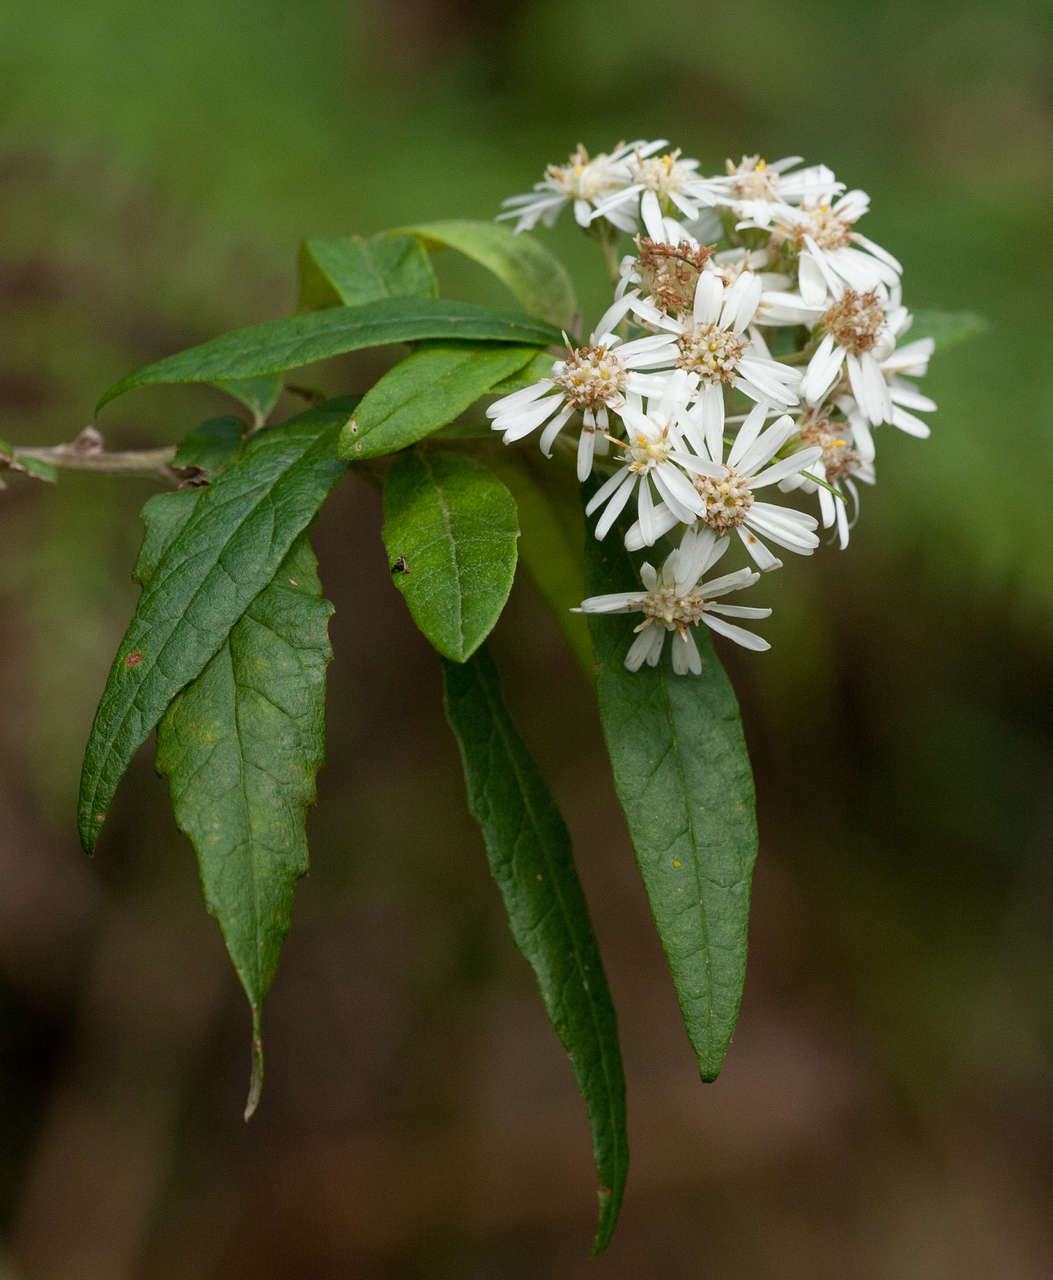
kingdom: Plantae
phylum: Tracheophyta
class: Magnoliopsida
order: Asterales
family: Asteraceae
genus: Olearia
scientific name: Olearia lirata
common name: Dusty daisybush
